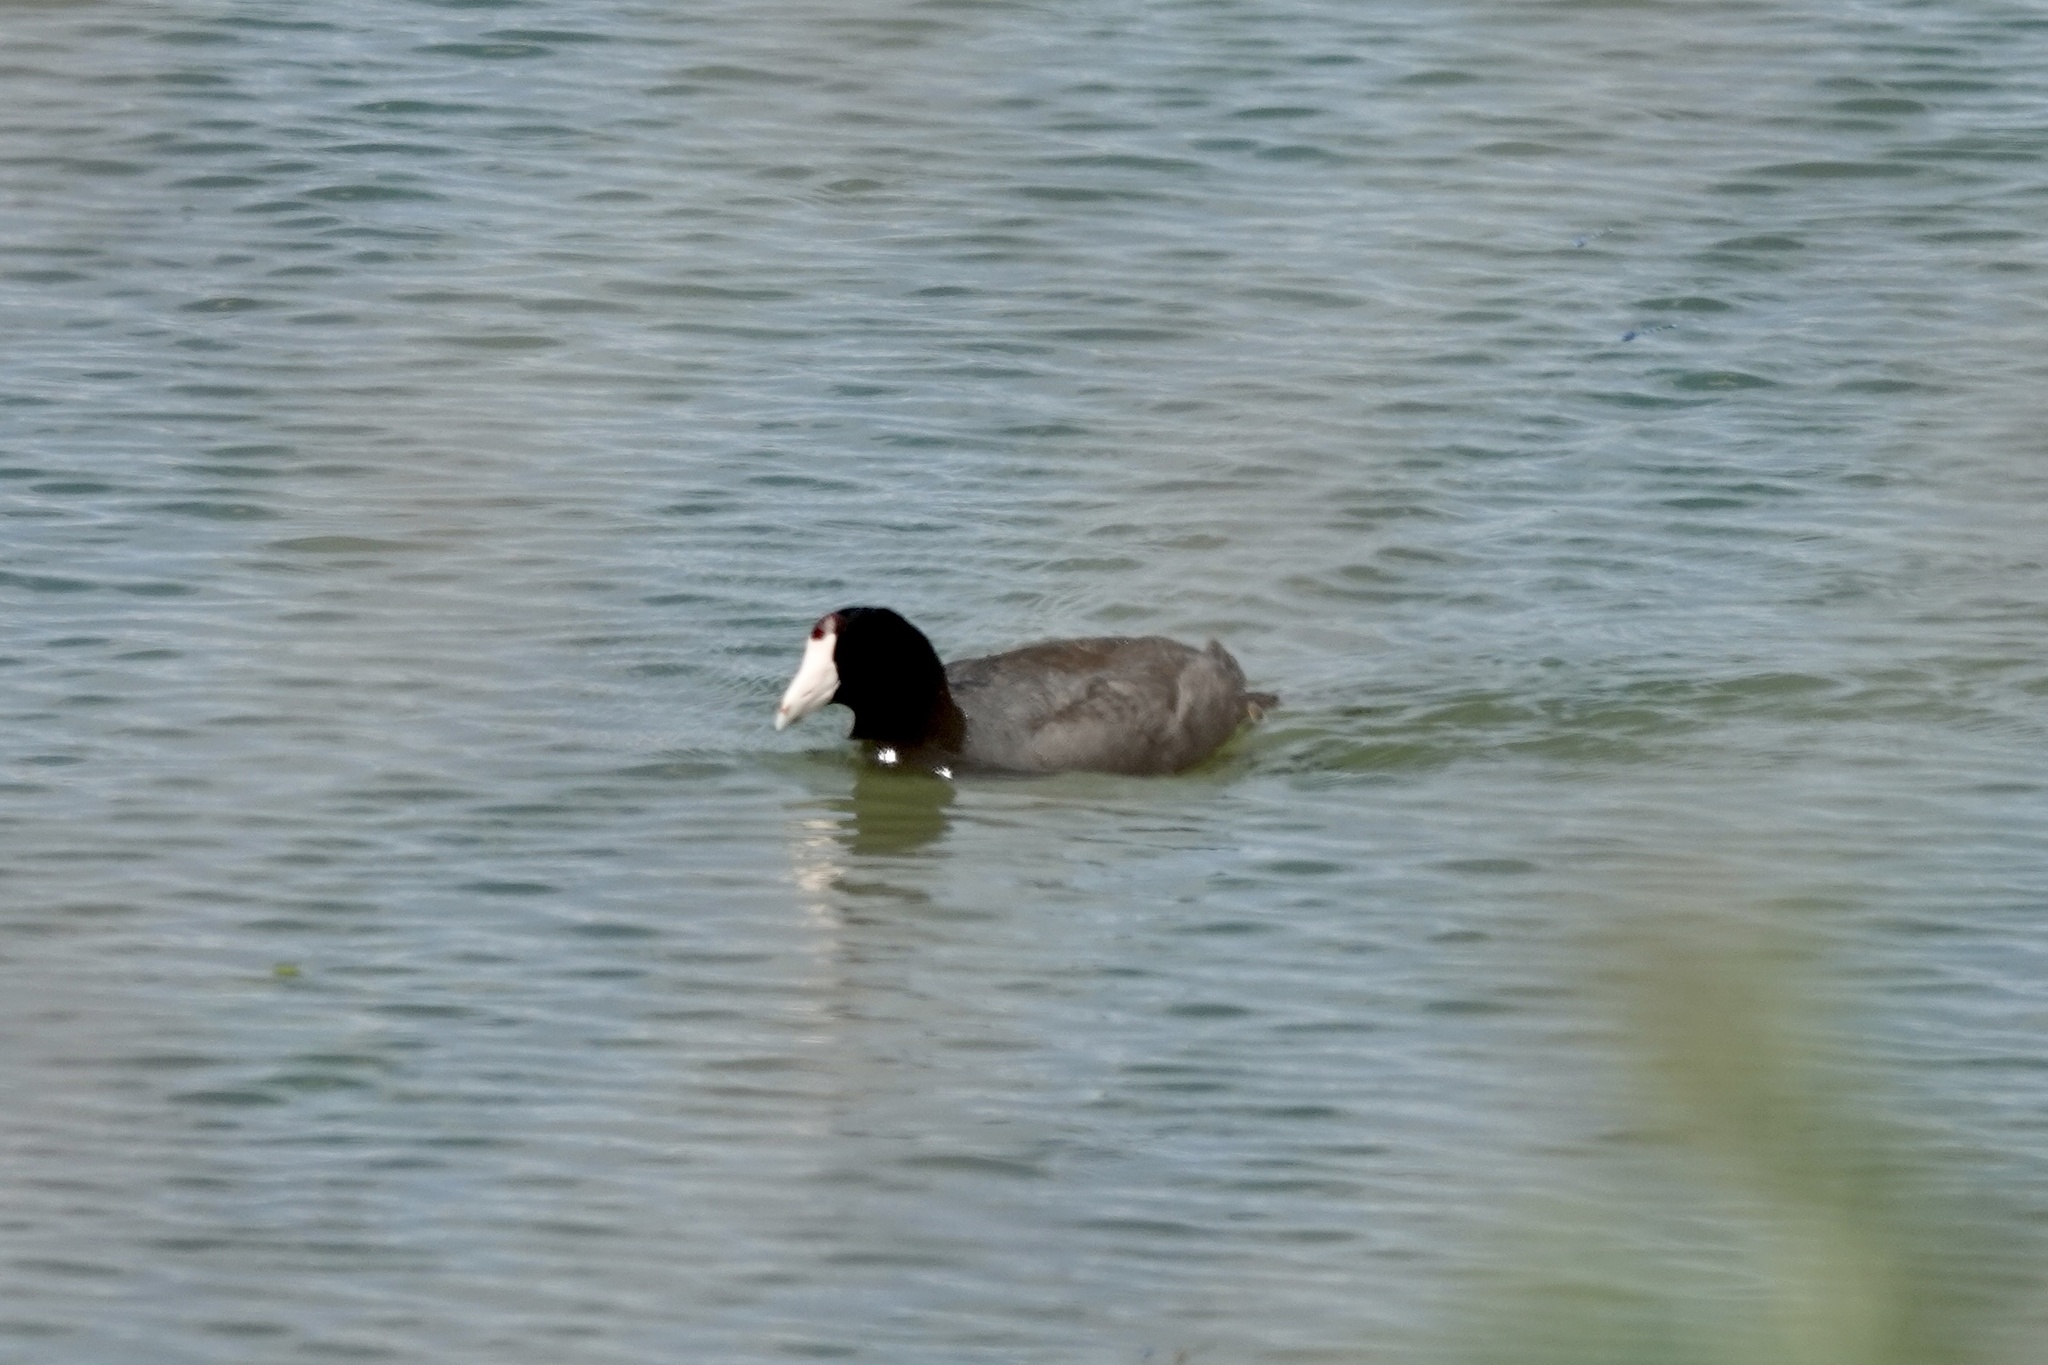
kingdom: Animalia
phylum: Chordata
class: Aves
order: Gruiformes
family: Rallidae
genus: Fulica
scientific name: Fulica americana
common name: American coot
